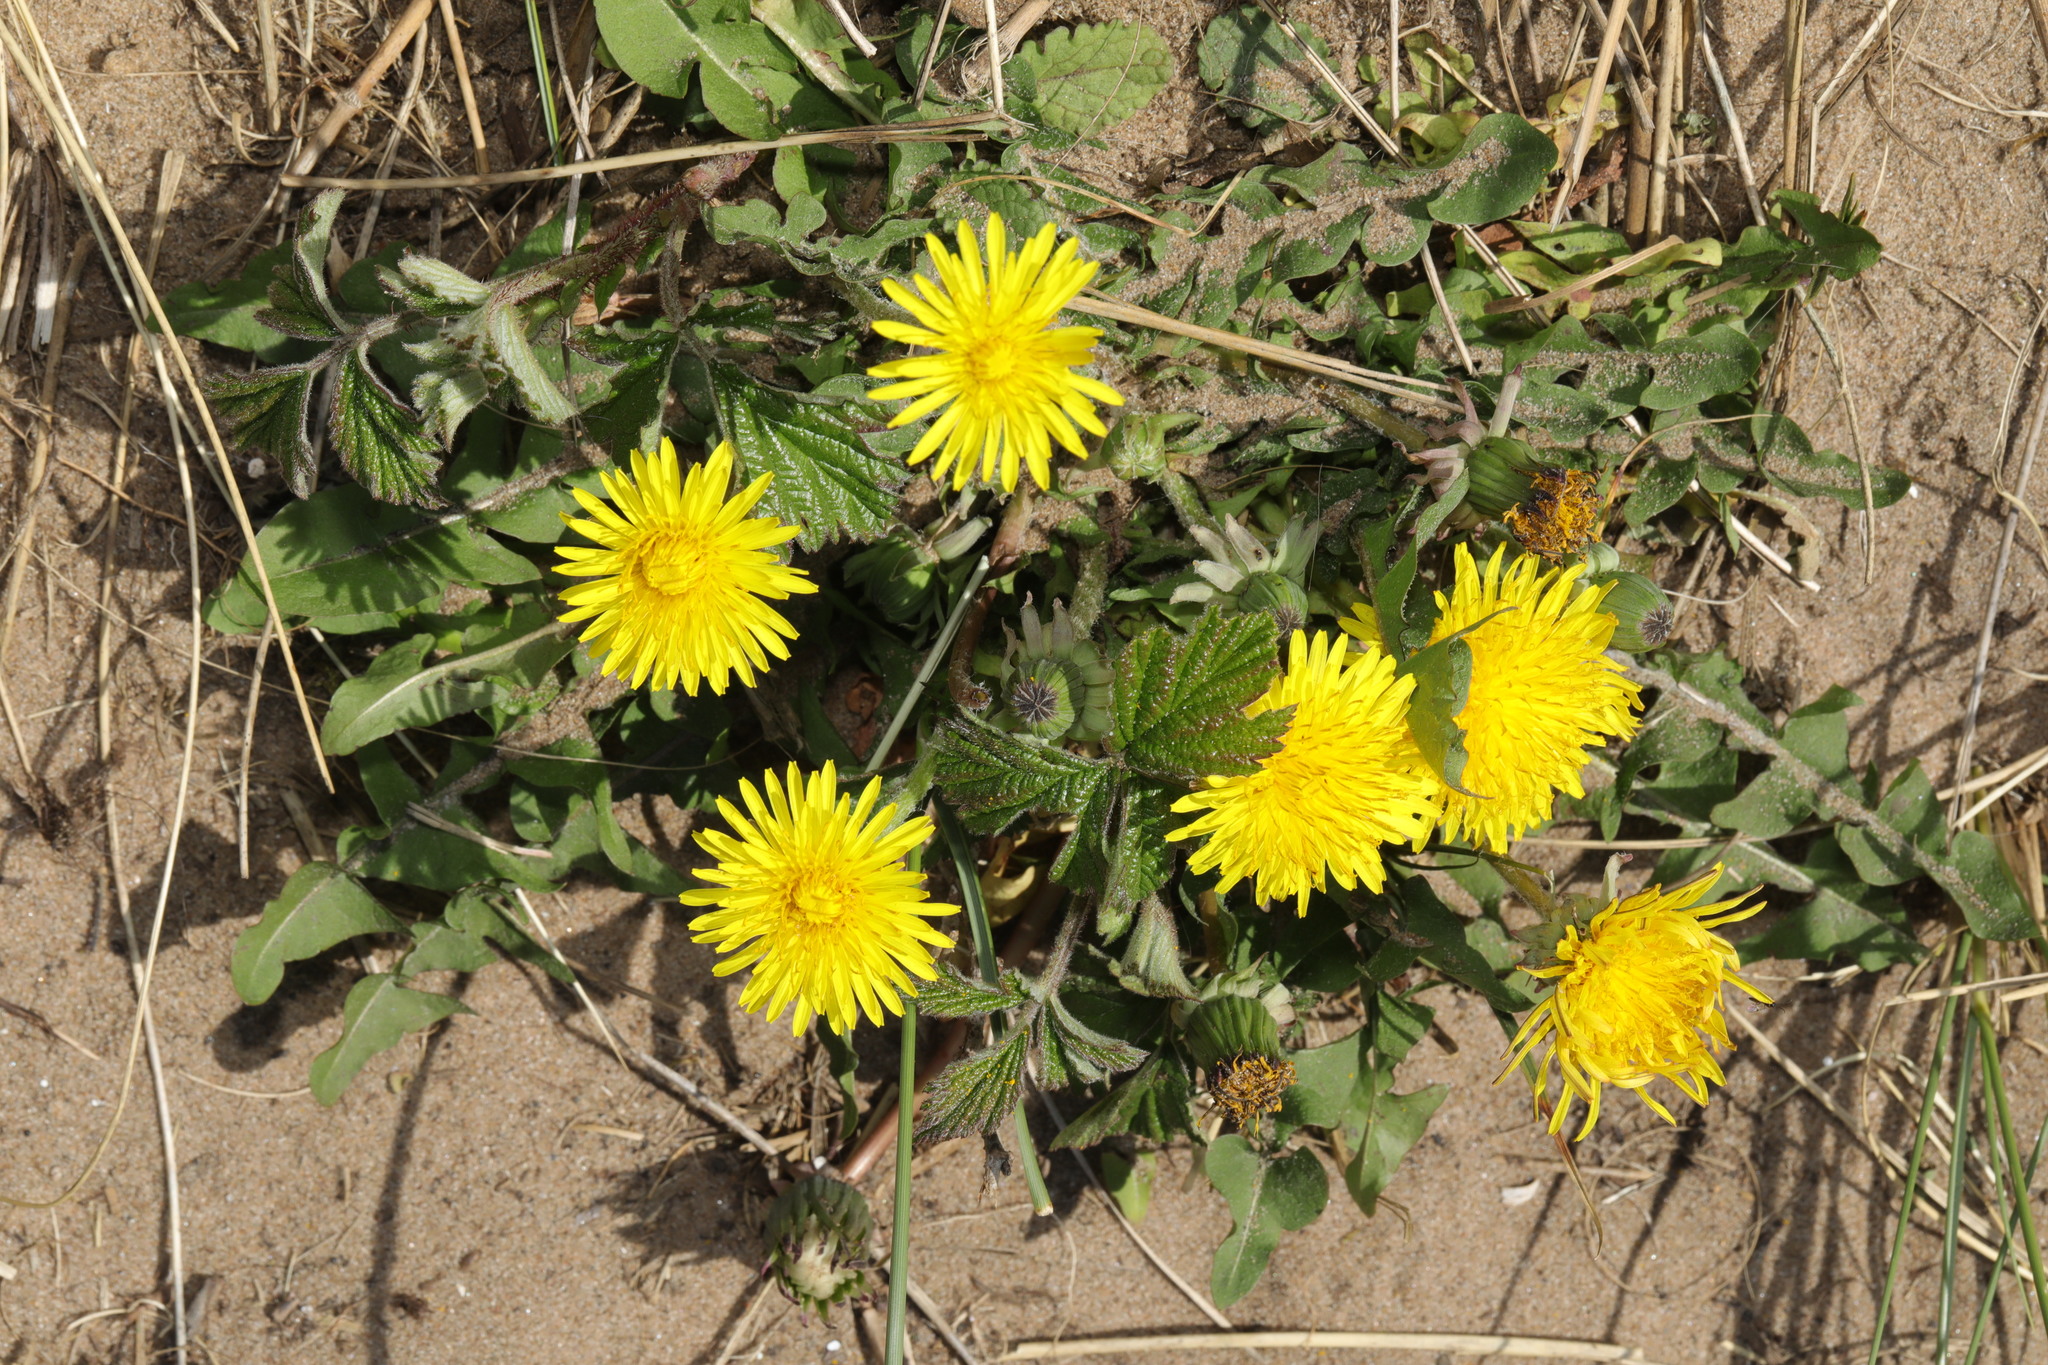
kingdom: Plantae
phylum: Tracheophyta
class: Magnoliopsida
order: Asterales
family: Asteraceae
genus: Taraxacum
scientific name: Taraxacum officinale
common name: Common dandelion
